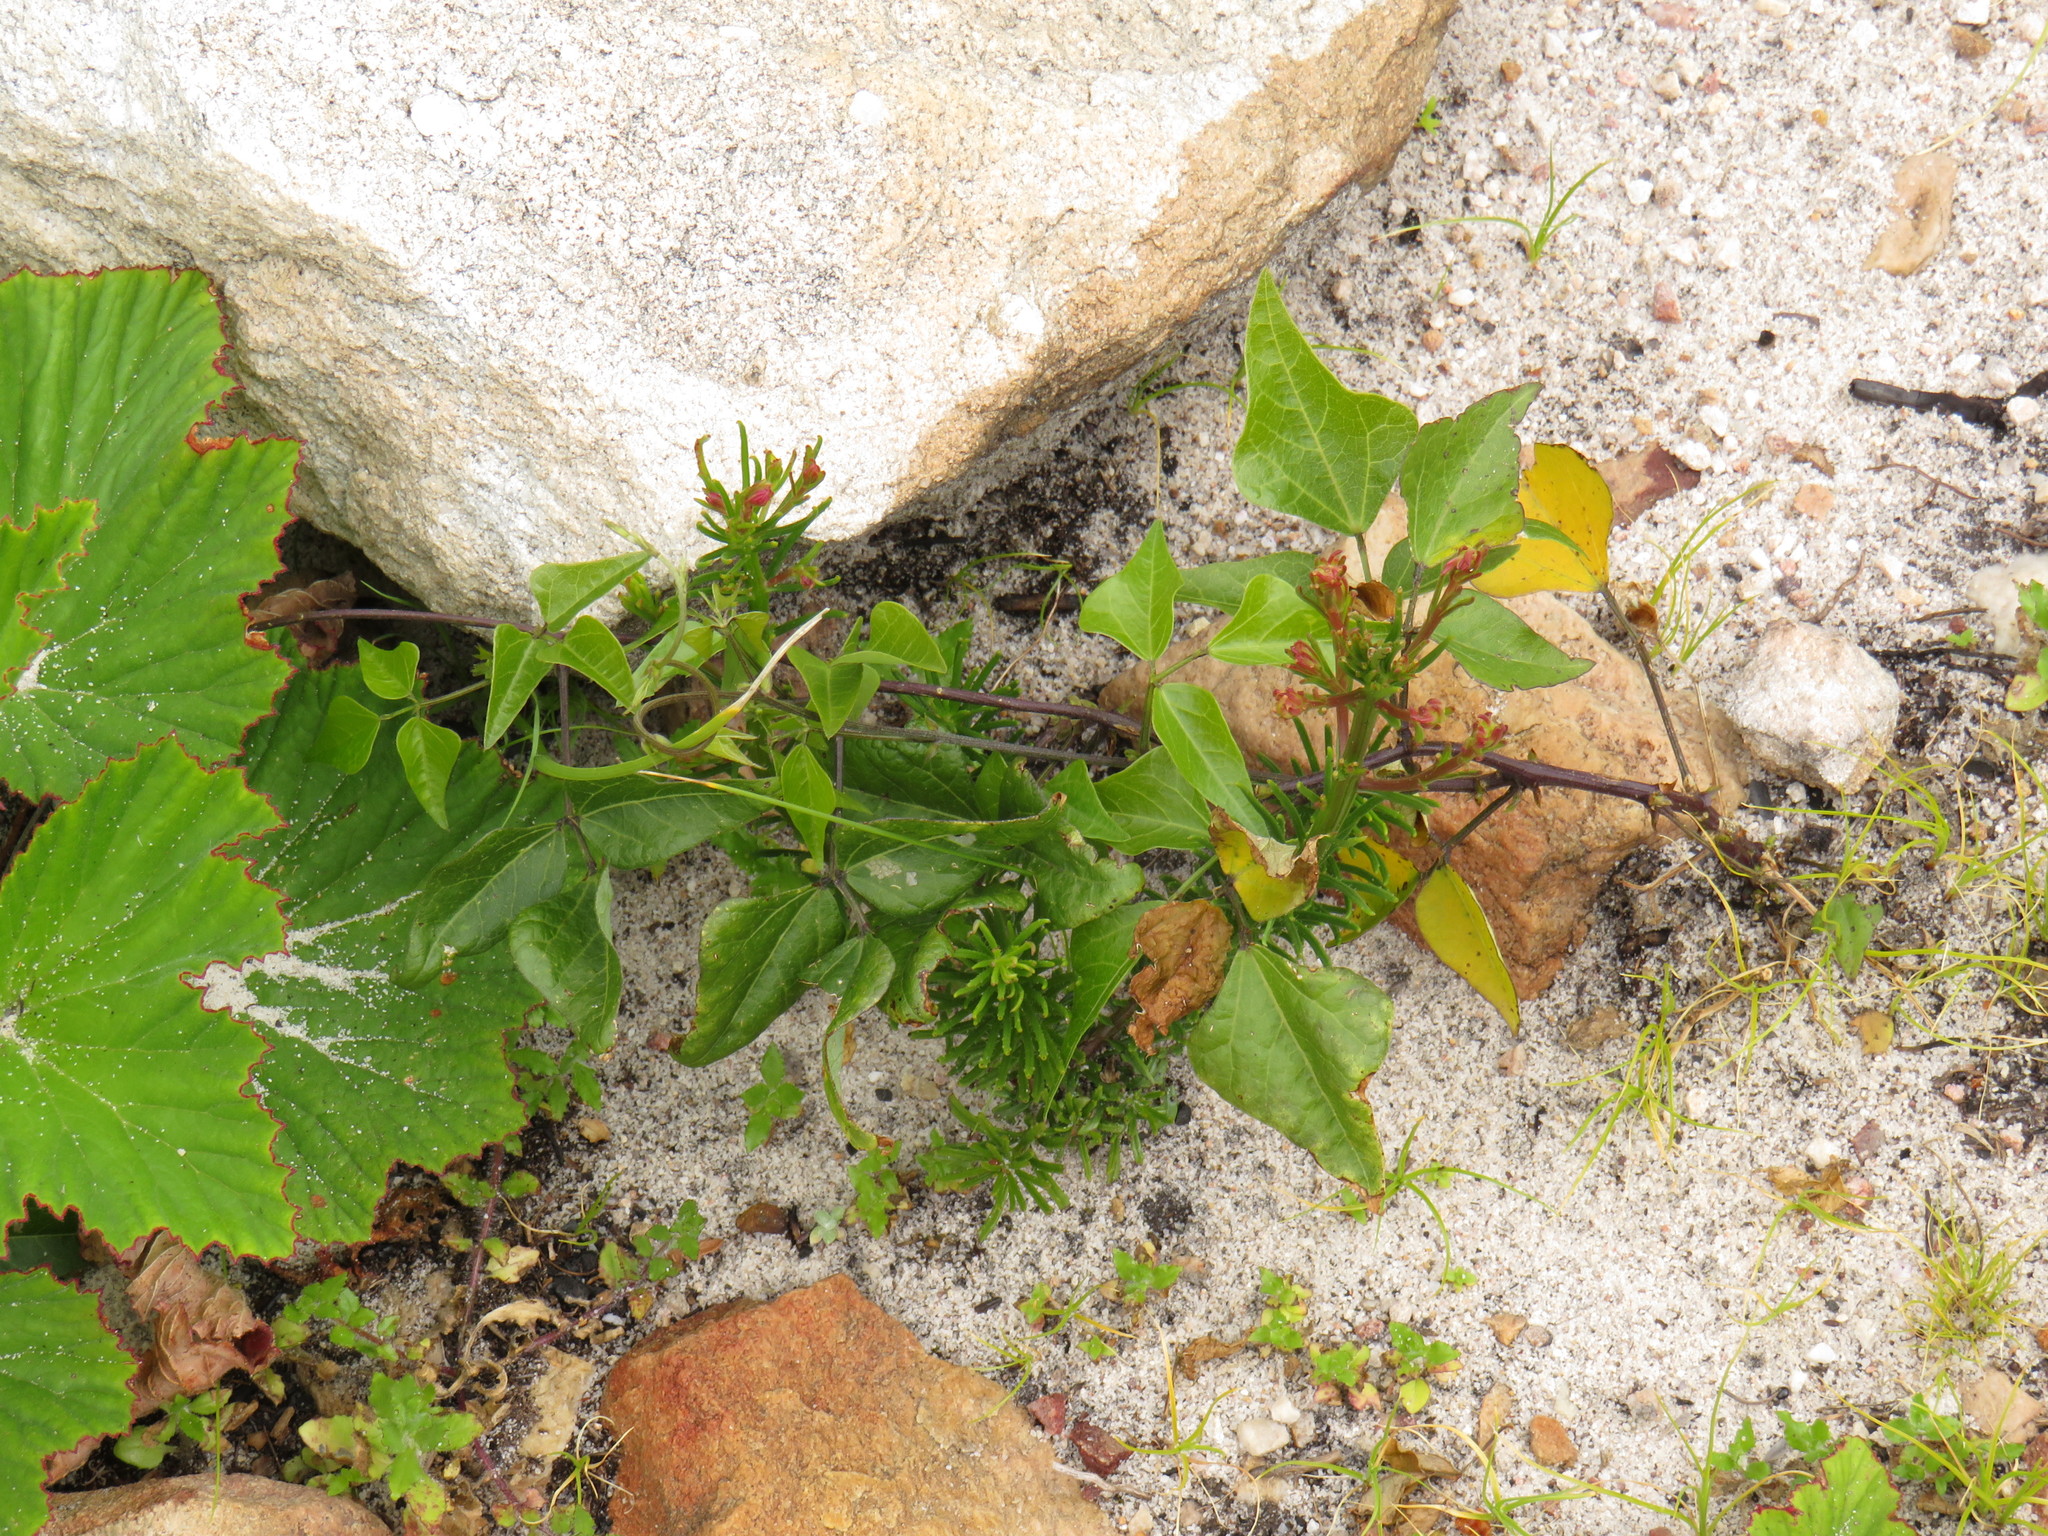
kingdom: Plantae
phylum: Tracheophyta
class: Magnoliopsida
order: Fabales
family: Fabaceae
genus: Dipogon
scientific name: Dipogon lignosus
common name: Okie bean
